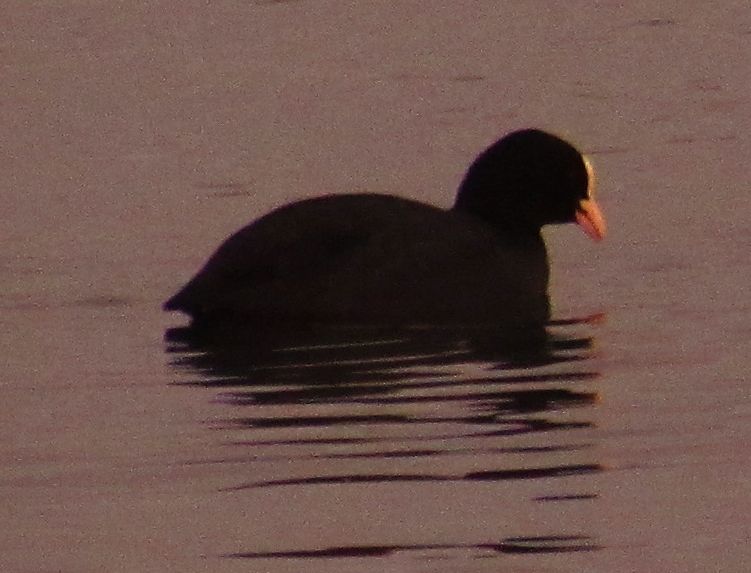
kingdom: Animalia
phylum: Chordata
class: Aves
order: Gruiformes
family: Rallidae
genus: Fulica
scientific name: Fulica atra
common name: Eurasian coot
